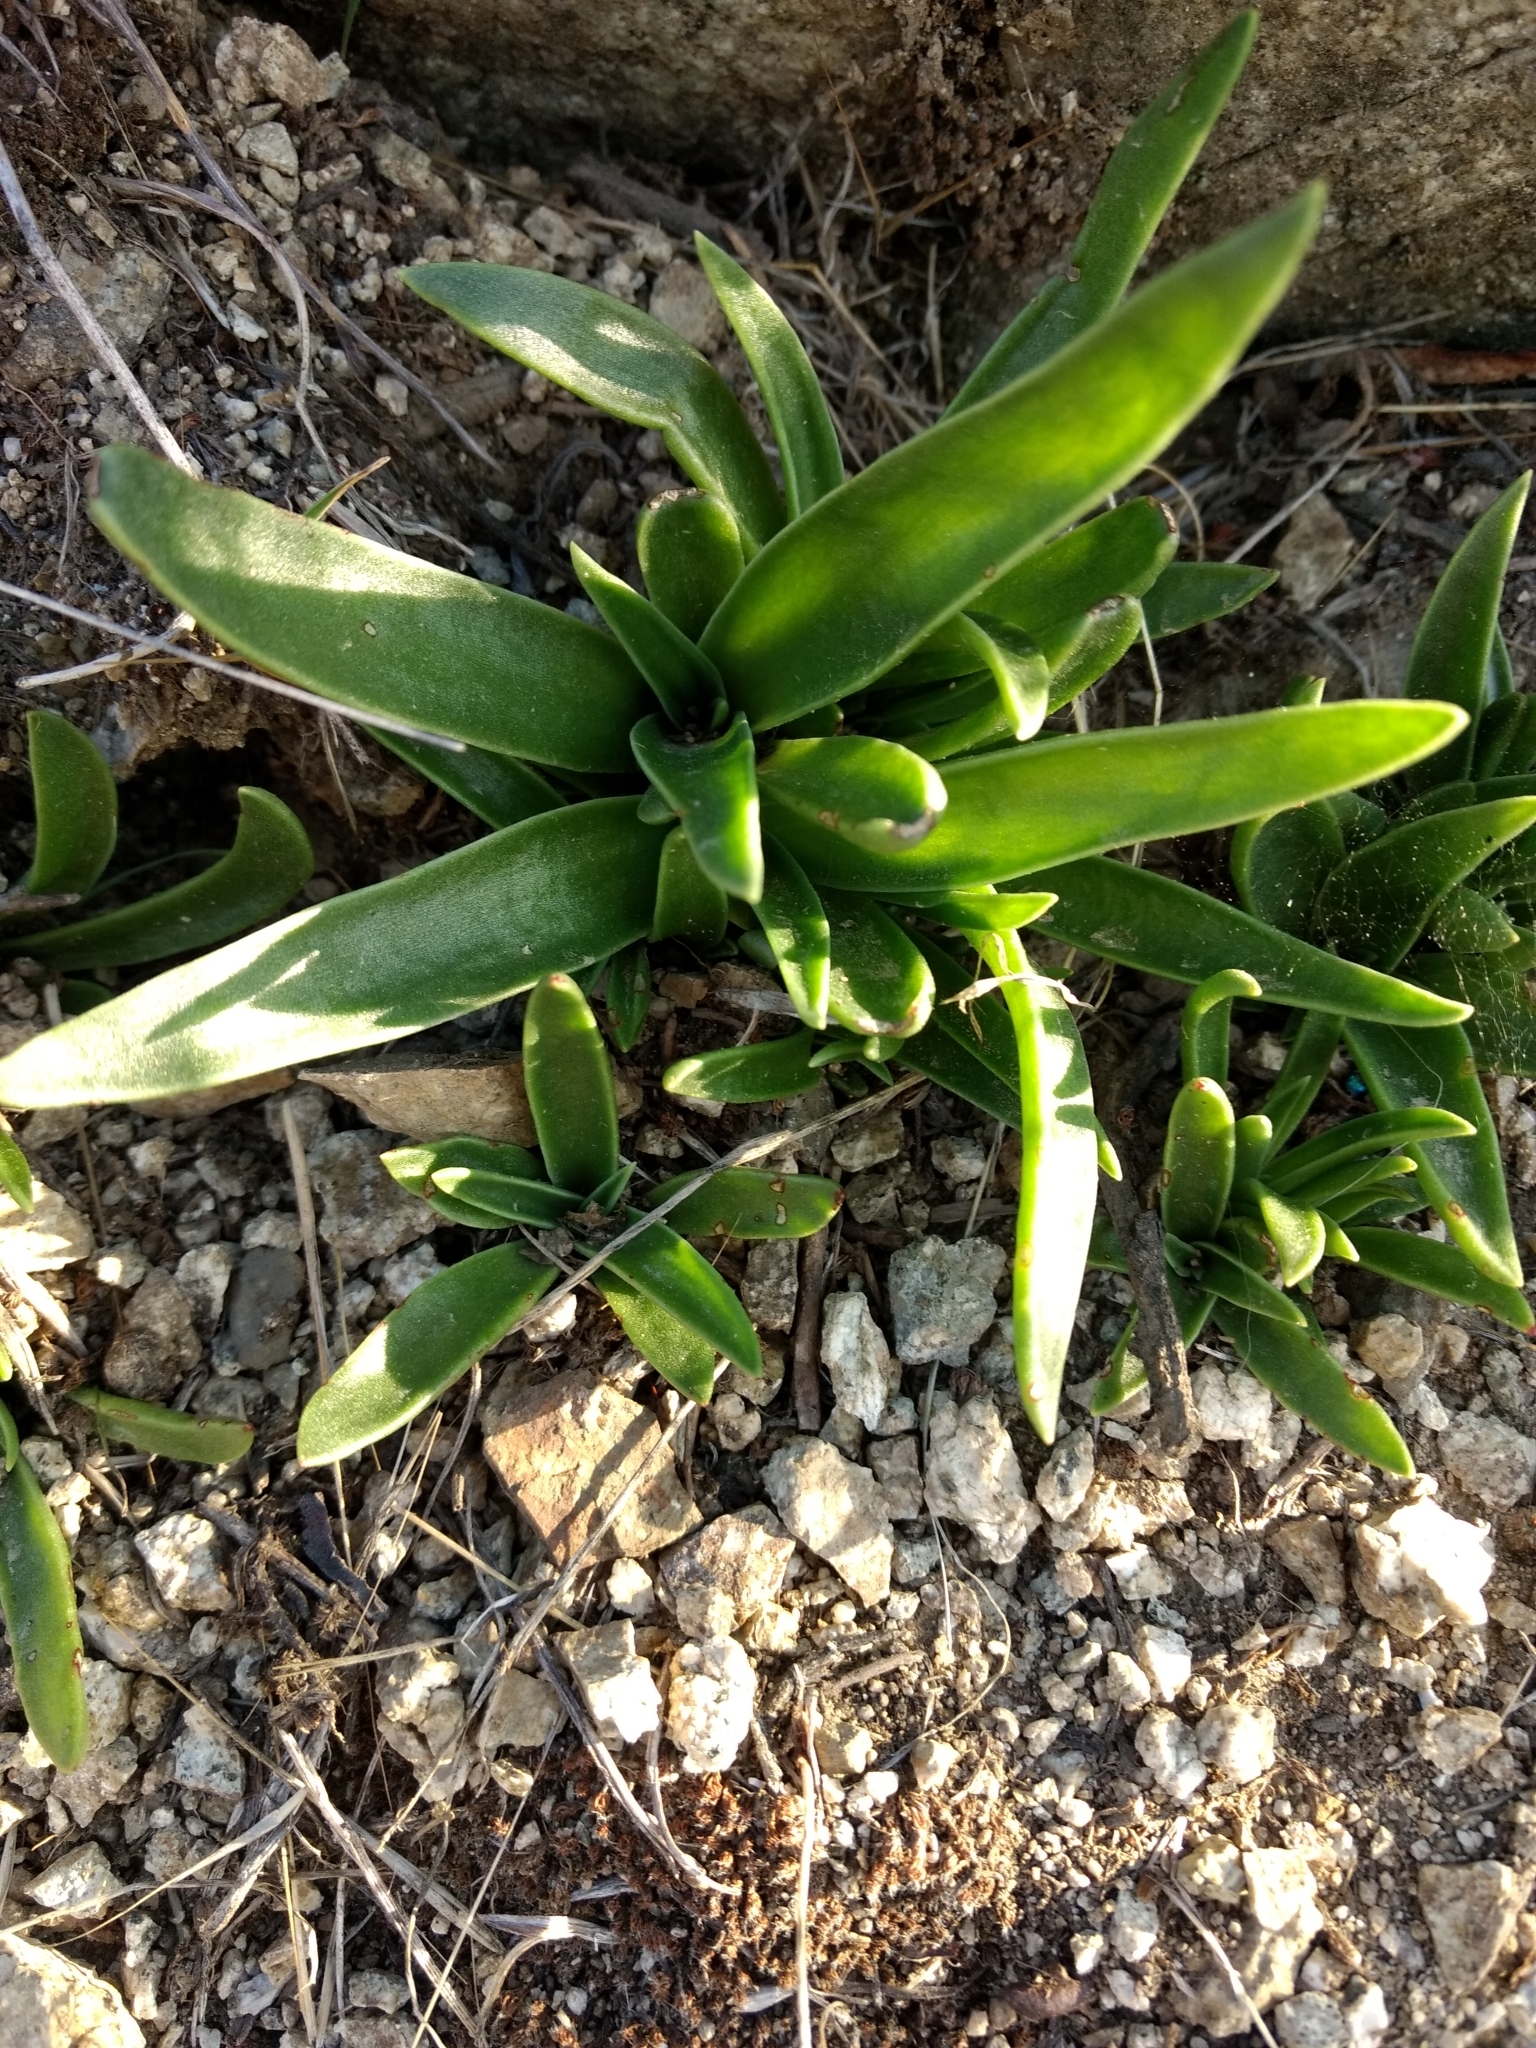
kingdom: Plantae
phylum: Tracheophyta
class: Magnoliopsida
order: Saxifragales
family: Crassulaceae
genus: Dudleya
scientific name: Dudleya lanceolata
